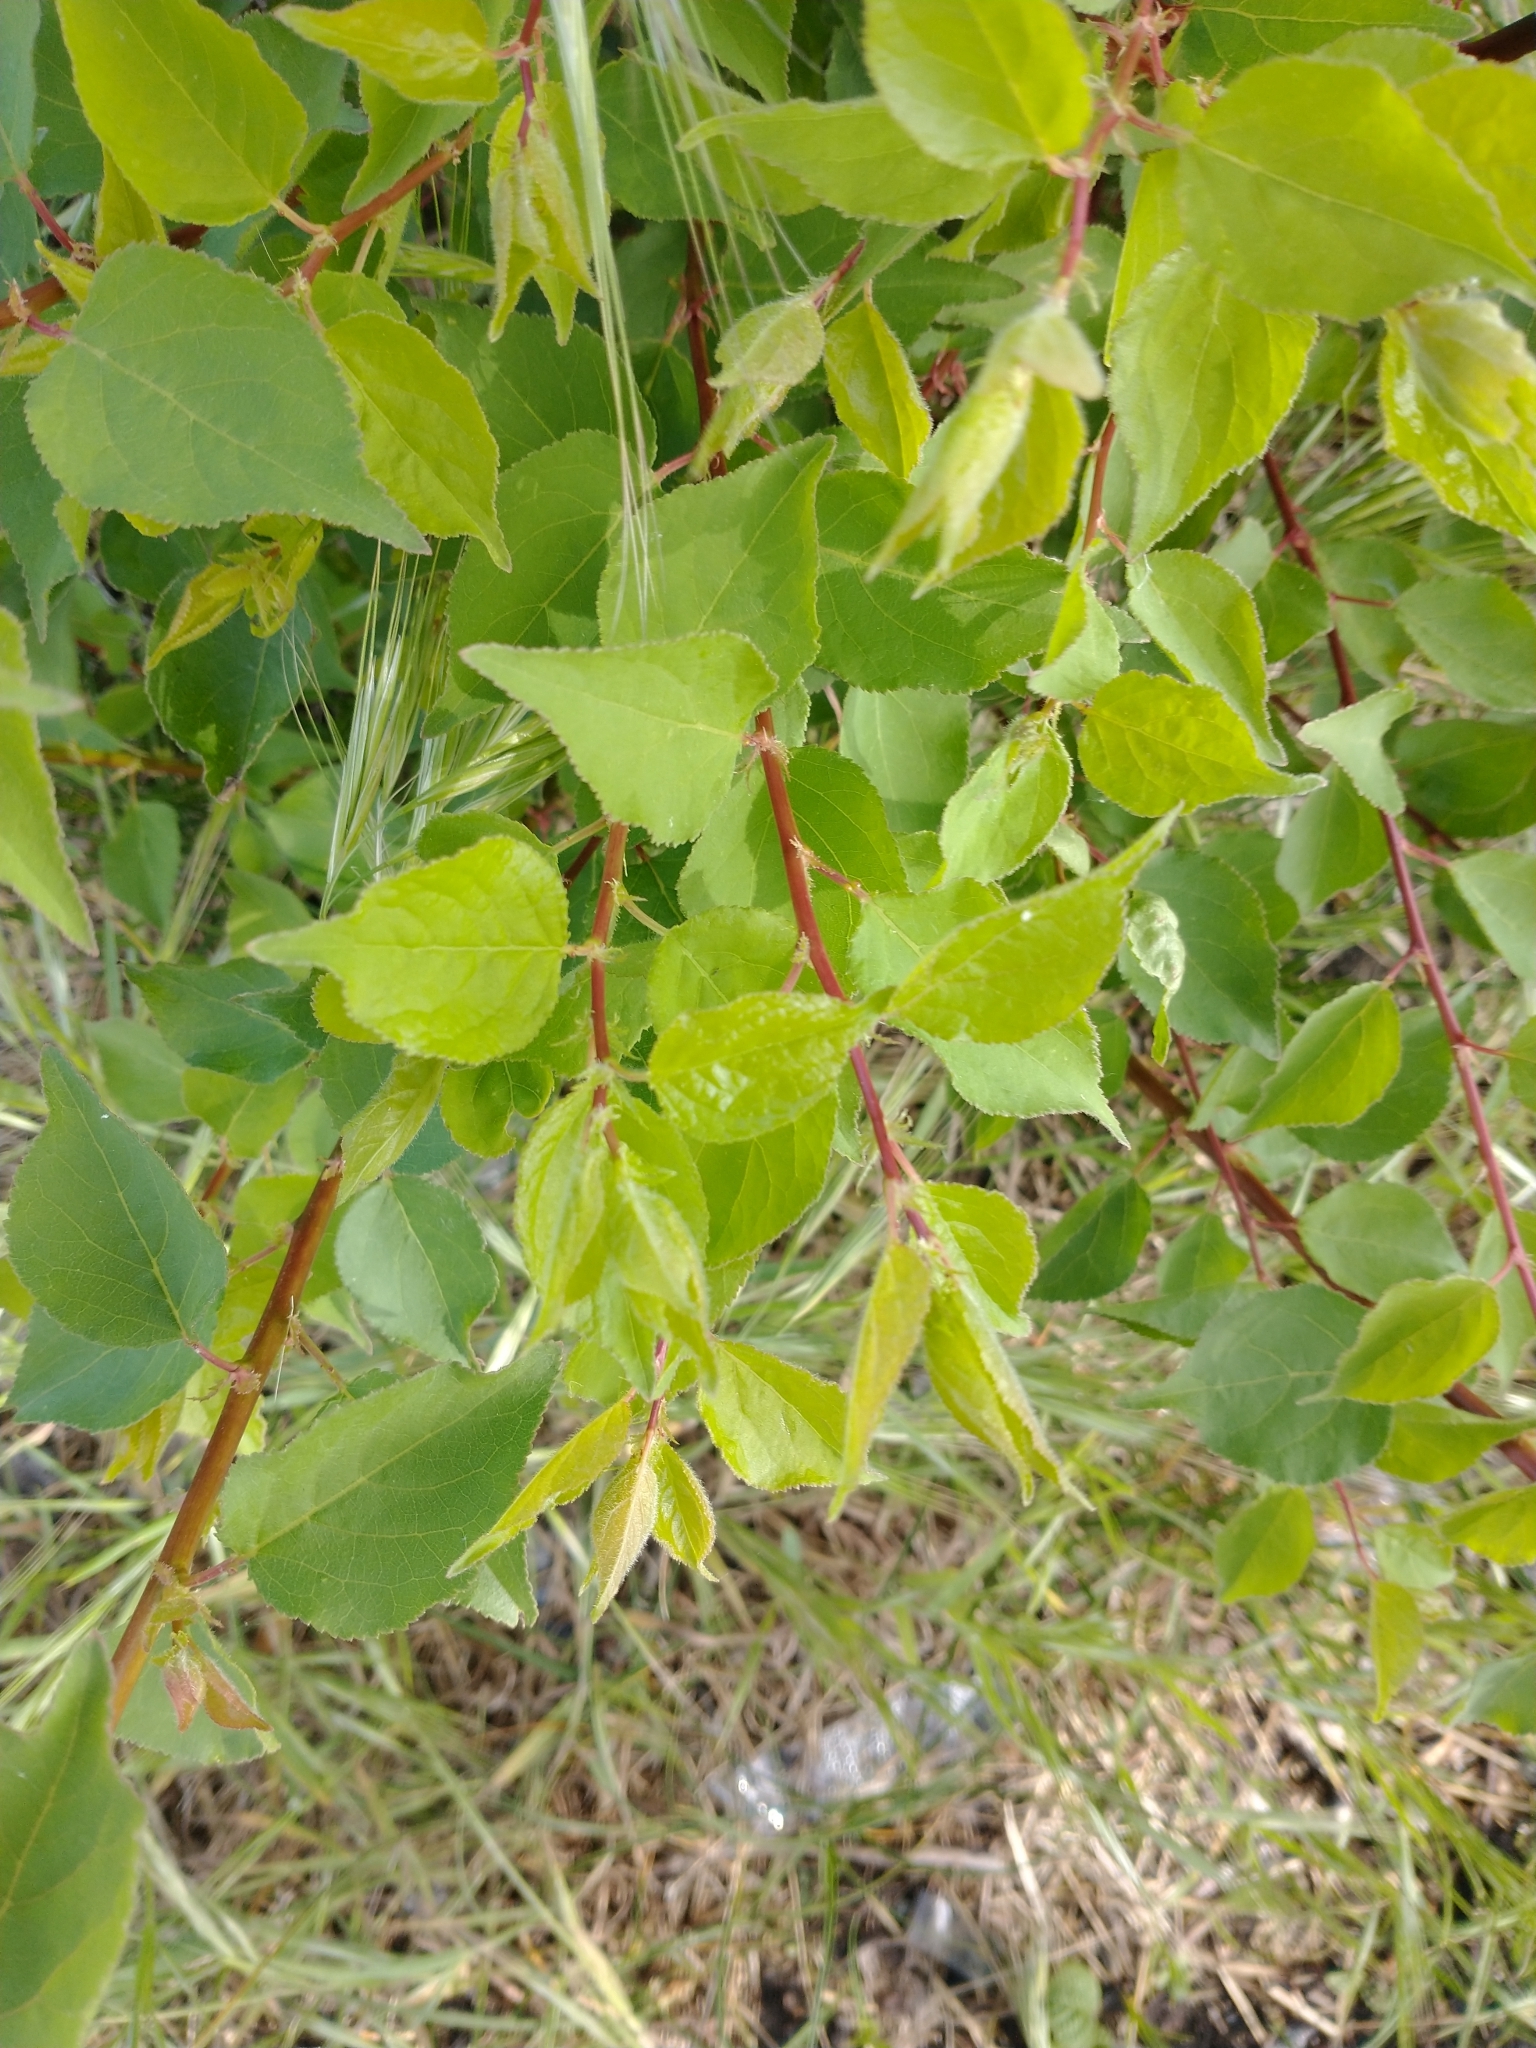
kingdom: Plantae
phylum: Tracheophyta
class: Magnoliopsida
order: Rosales
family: Rosaceae
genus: Prunus
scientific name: Prunus armeniaca
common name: Apricot
